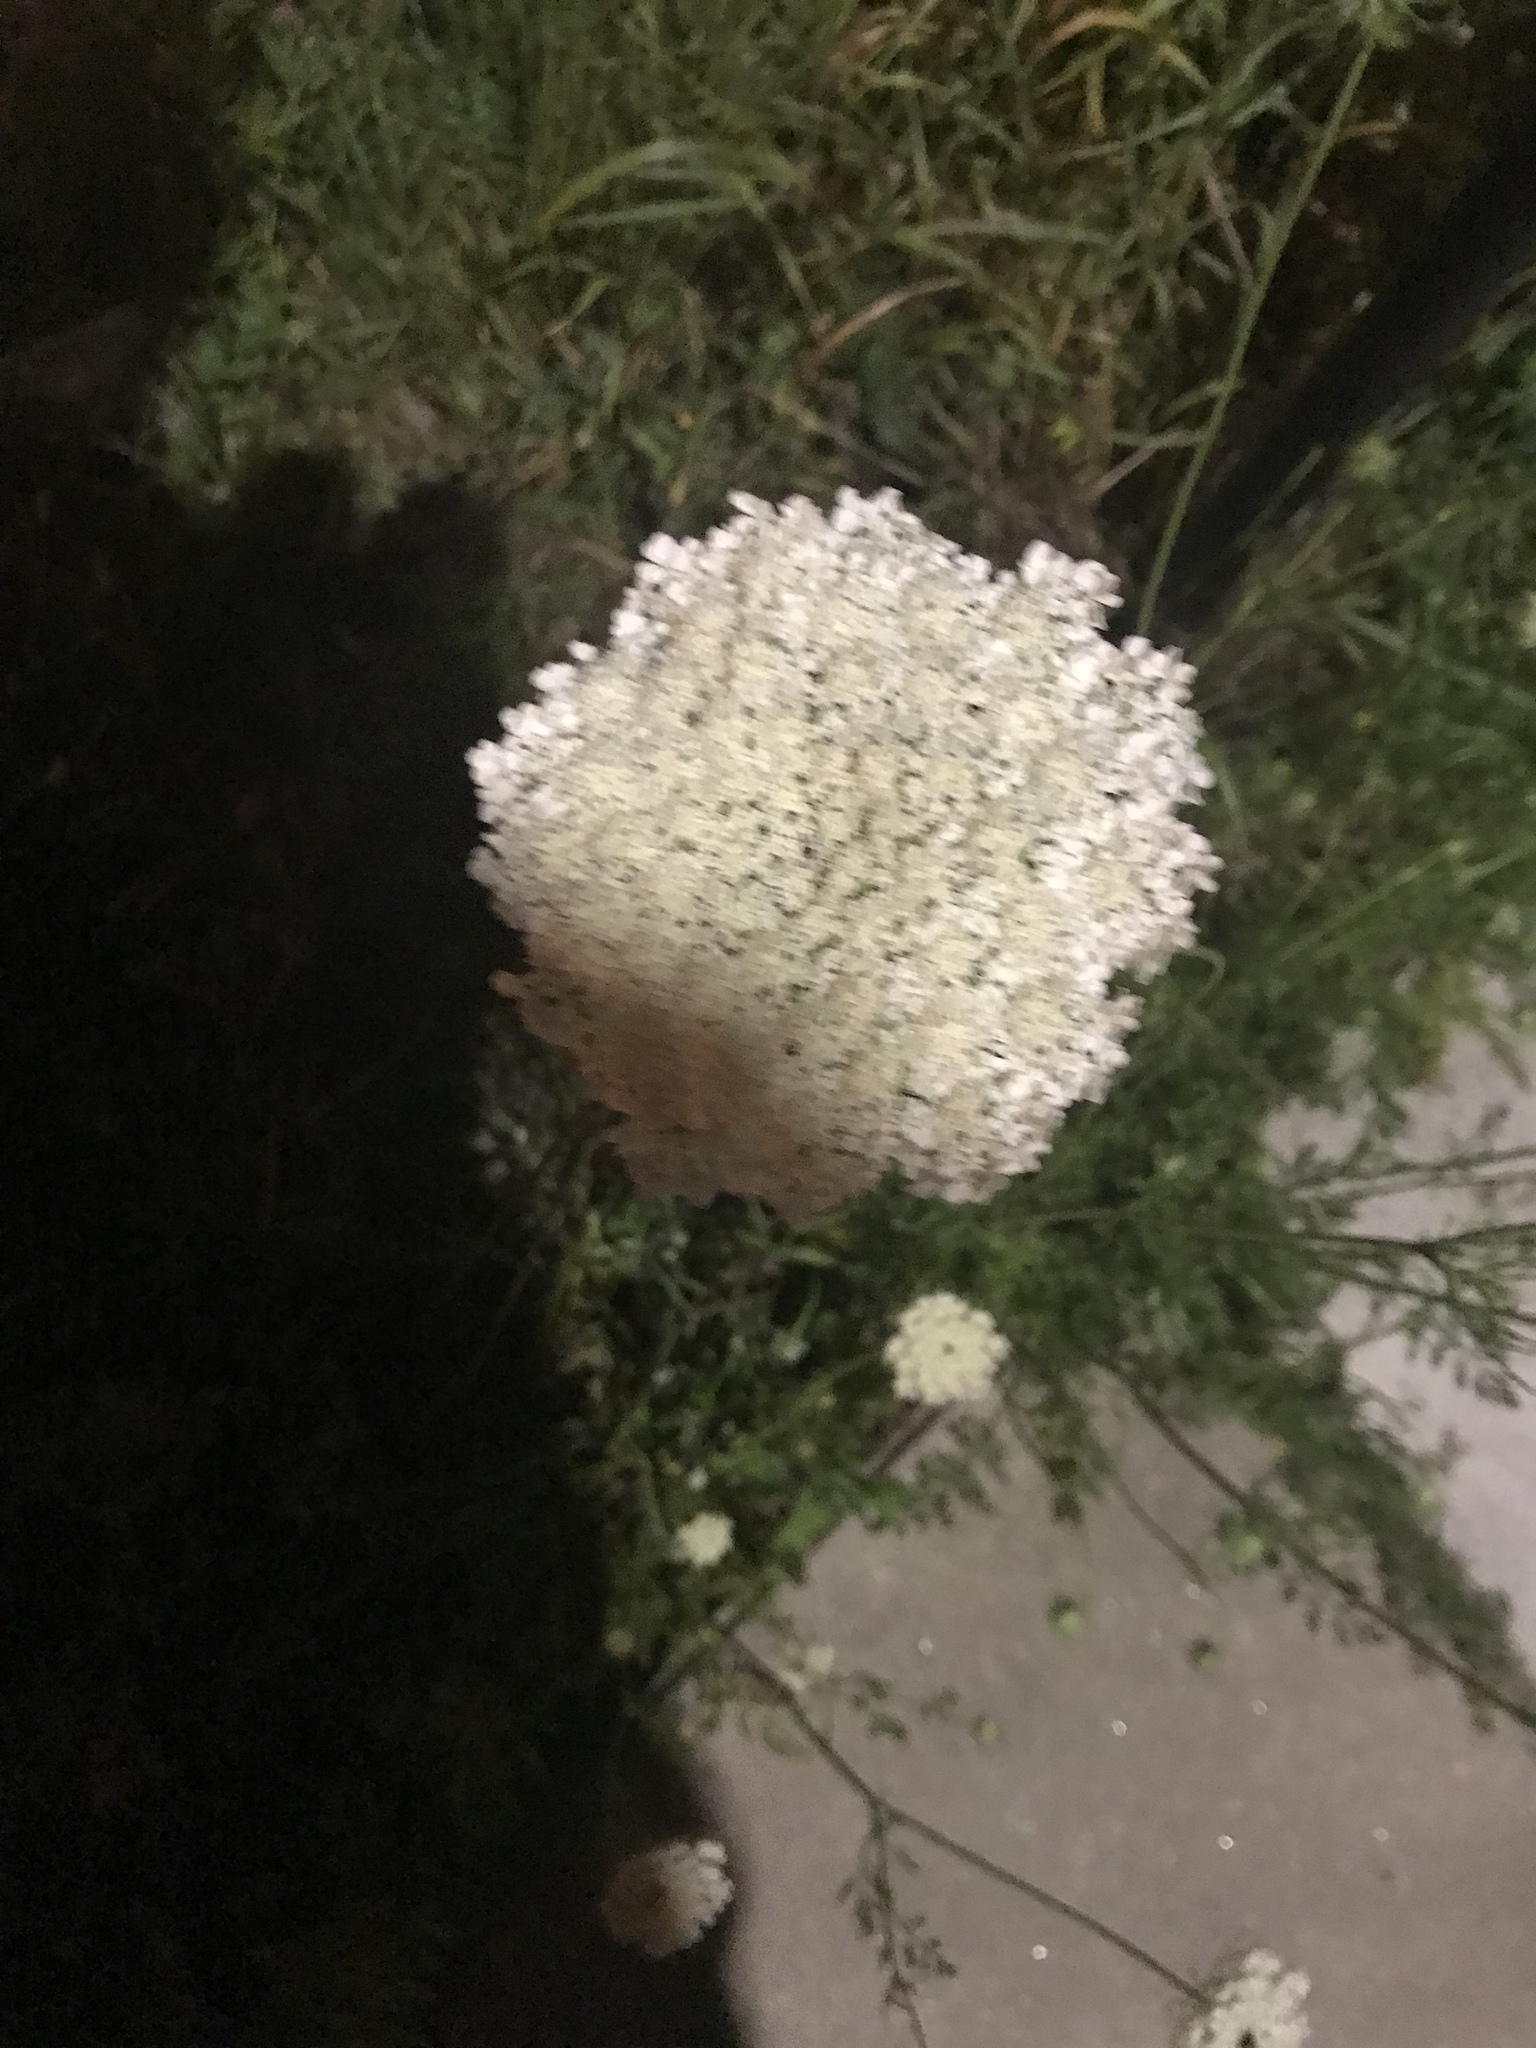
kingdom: Plantae
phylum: Tracheophyta
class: Magnoliopsida
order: Apiales
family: Apiaceae
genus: Daucus
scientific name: Daucus carota
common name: Wild carrot
